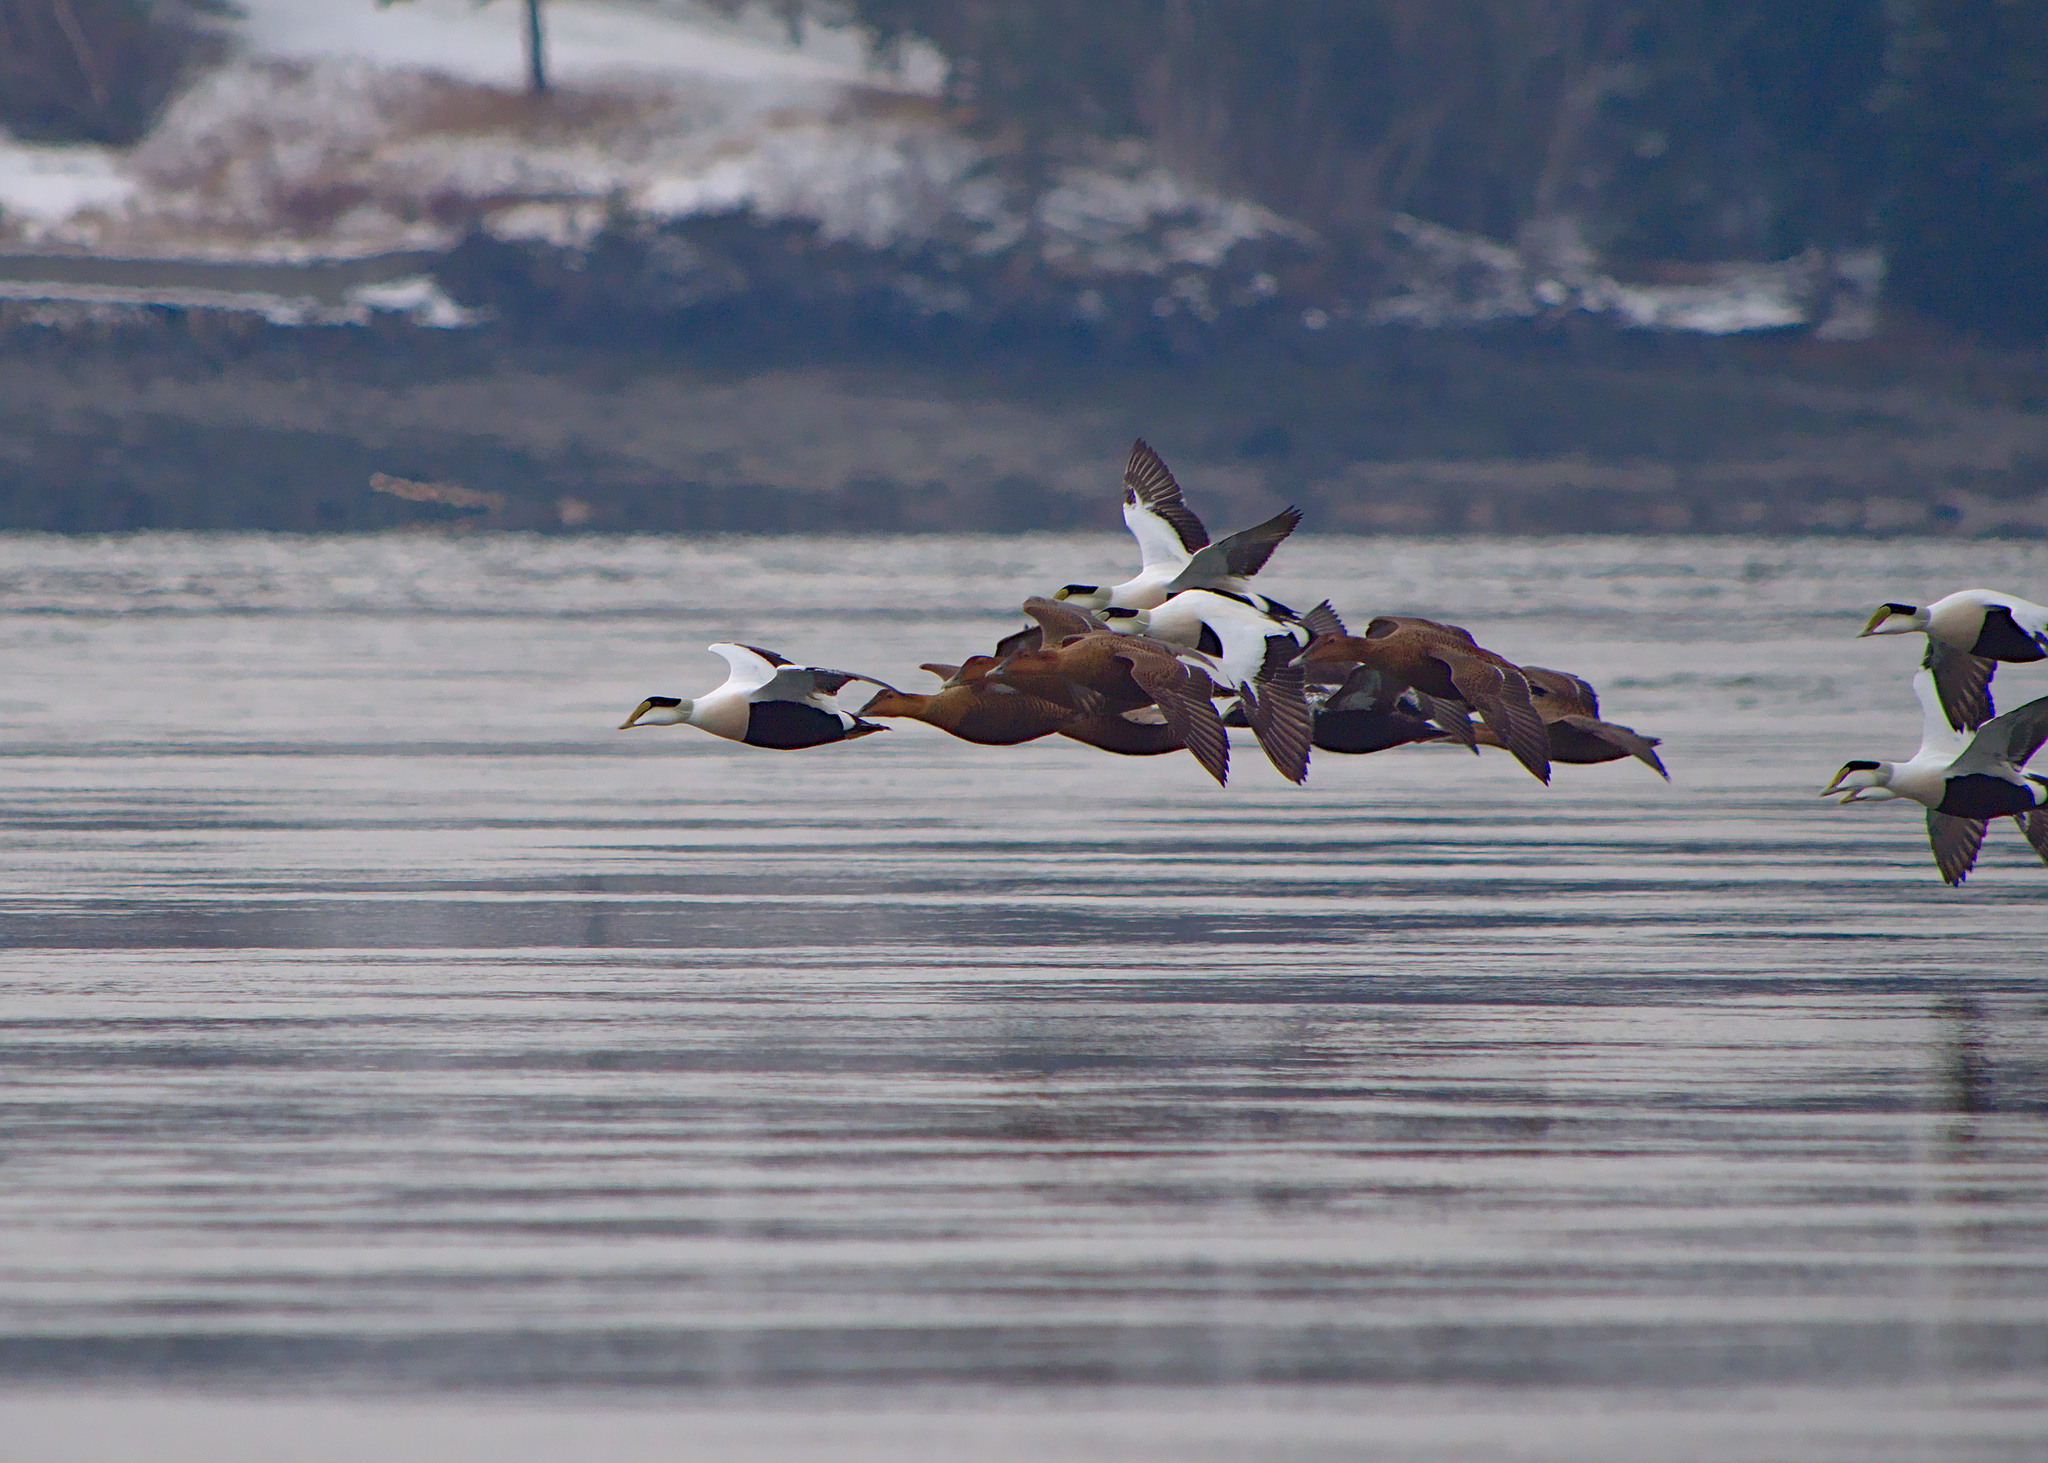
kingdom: Animalia
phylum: Chordata
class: Aves
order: Anseriformes
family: Anatidae
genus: Somateria
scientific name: Somateria mollissima
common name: Common eider
